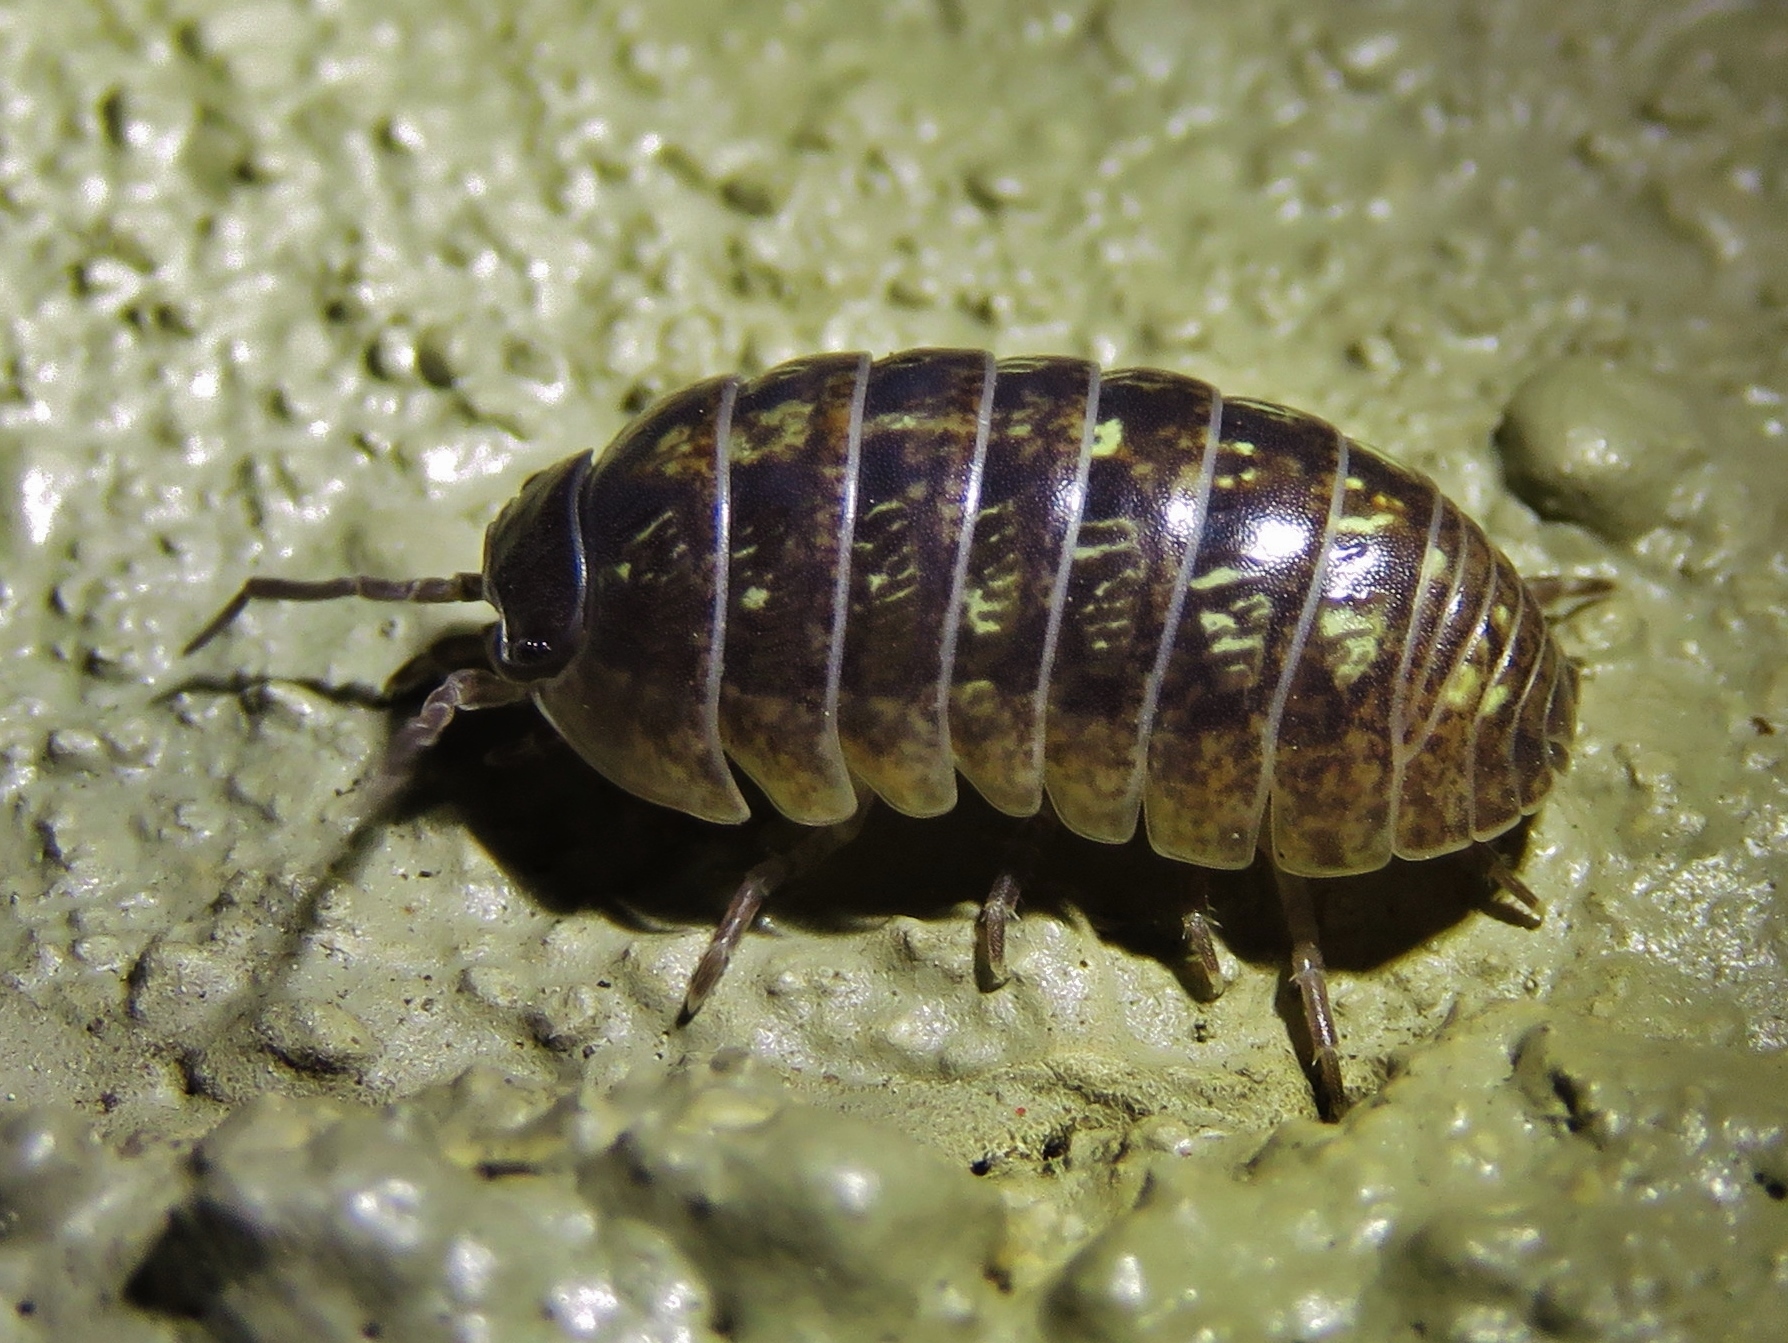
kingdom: Animalia
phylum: Arthropoda
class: Malacostraca
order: Isopoda
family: Armadillidiidae
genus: Armadillidium
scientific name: Armadillidium vulgare
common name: Common pill woodlouse
